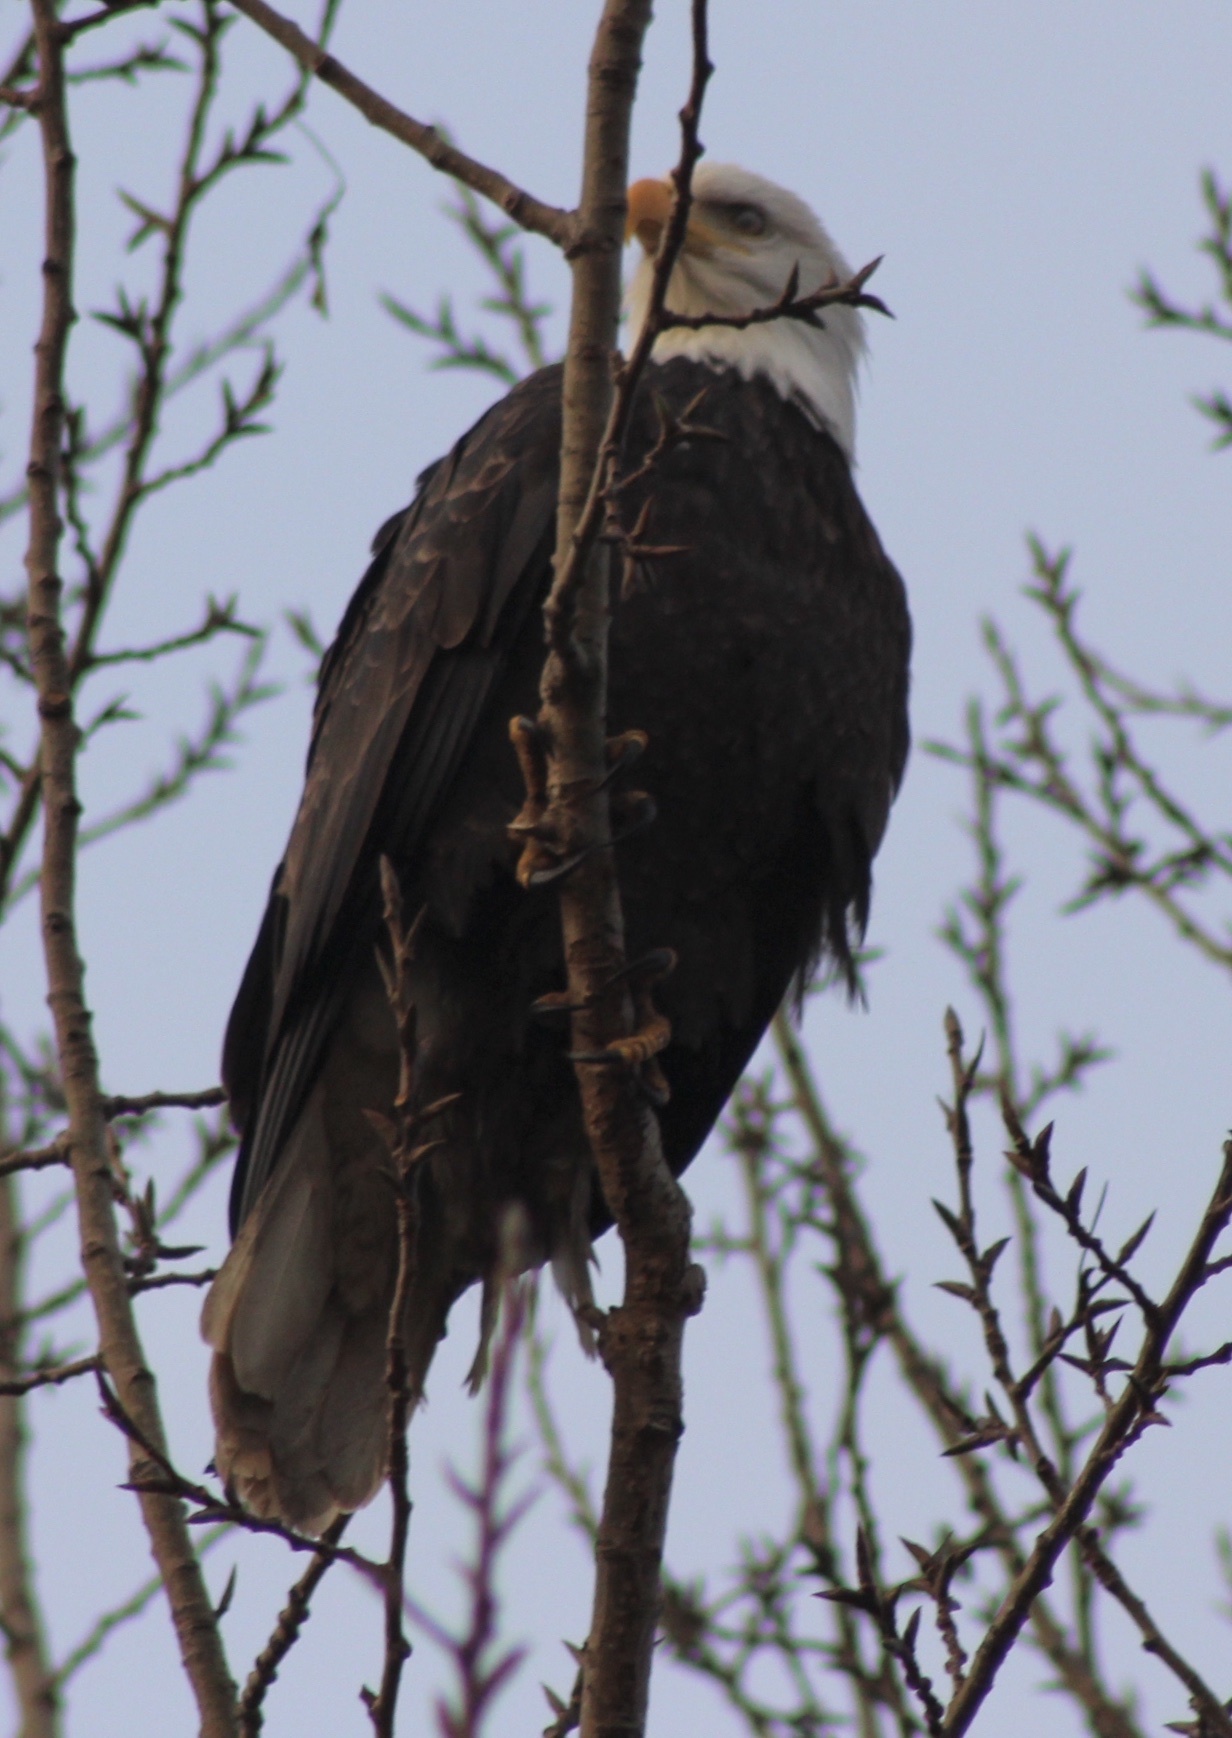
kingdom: Animalia
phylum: Chordata
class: Aves
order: Accipitriformes
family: Accipitridae
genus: Haliaeetus
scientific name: Haliaeetus leucocephalus
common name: Bald eagle
